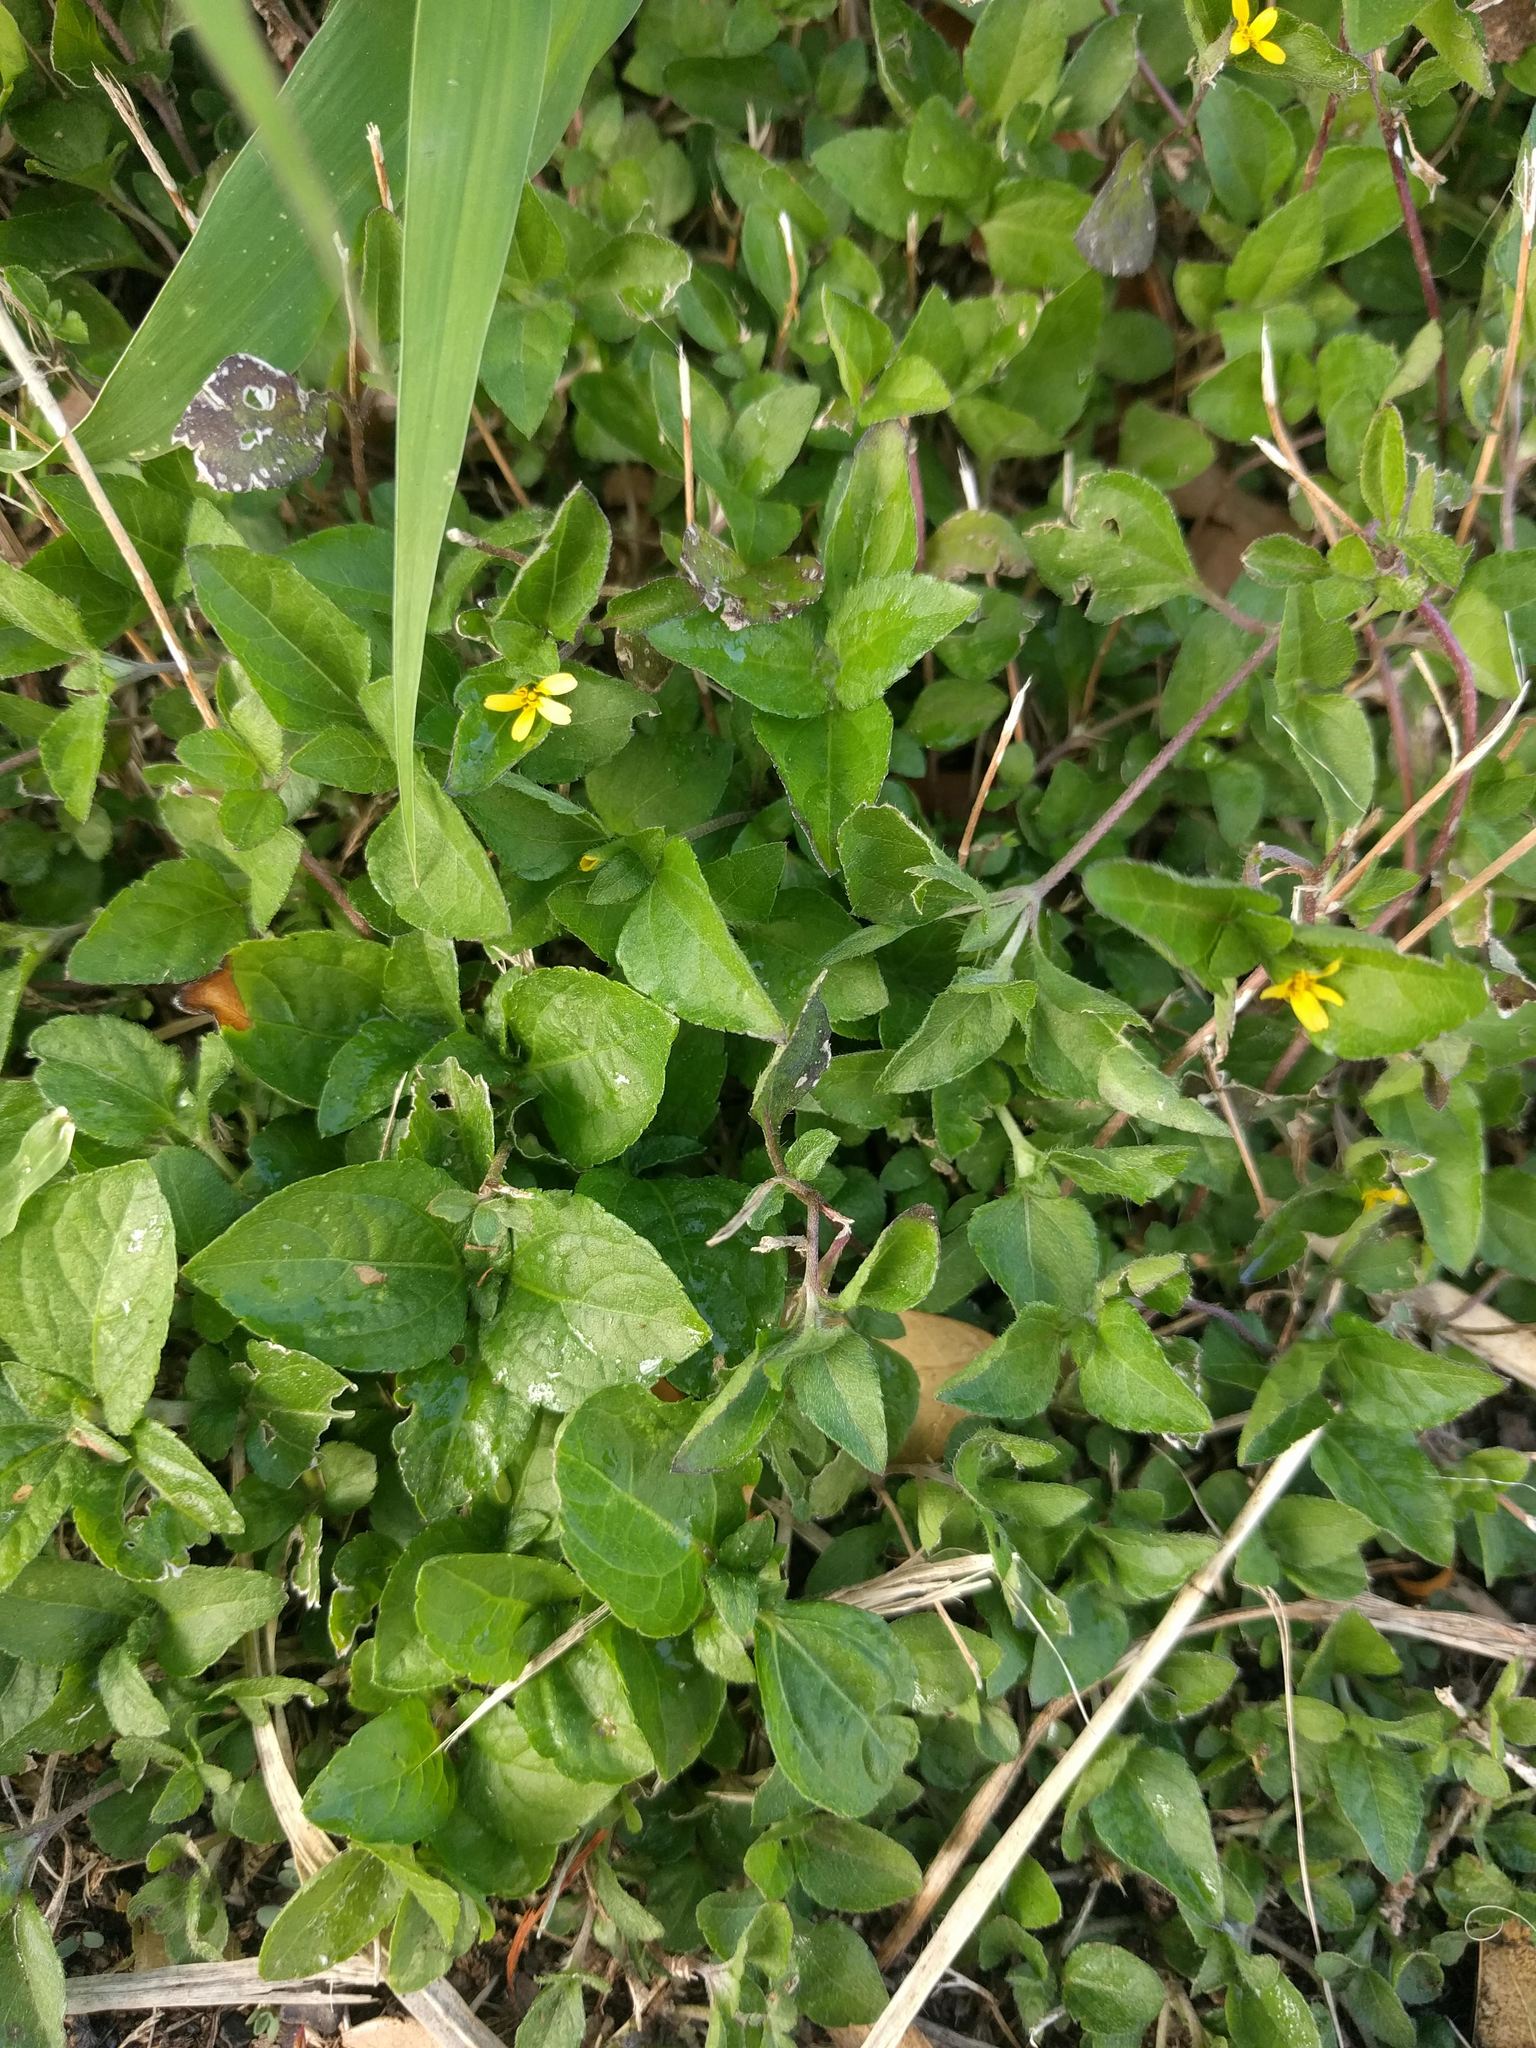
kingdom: Plantae
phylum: Tracheophyta
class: Magnoliopsida
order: Asterales
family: Asteraceae
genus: Calyptocarpus
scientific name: Calyptocarpus vialis
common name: Straggler daisy
